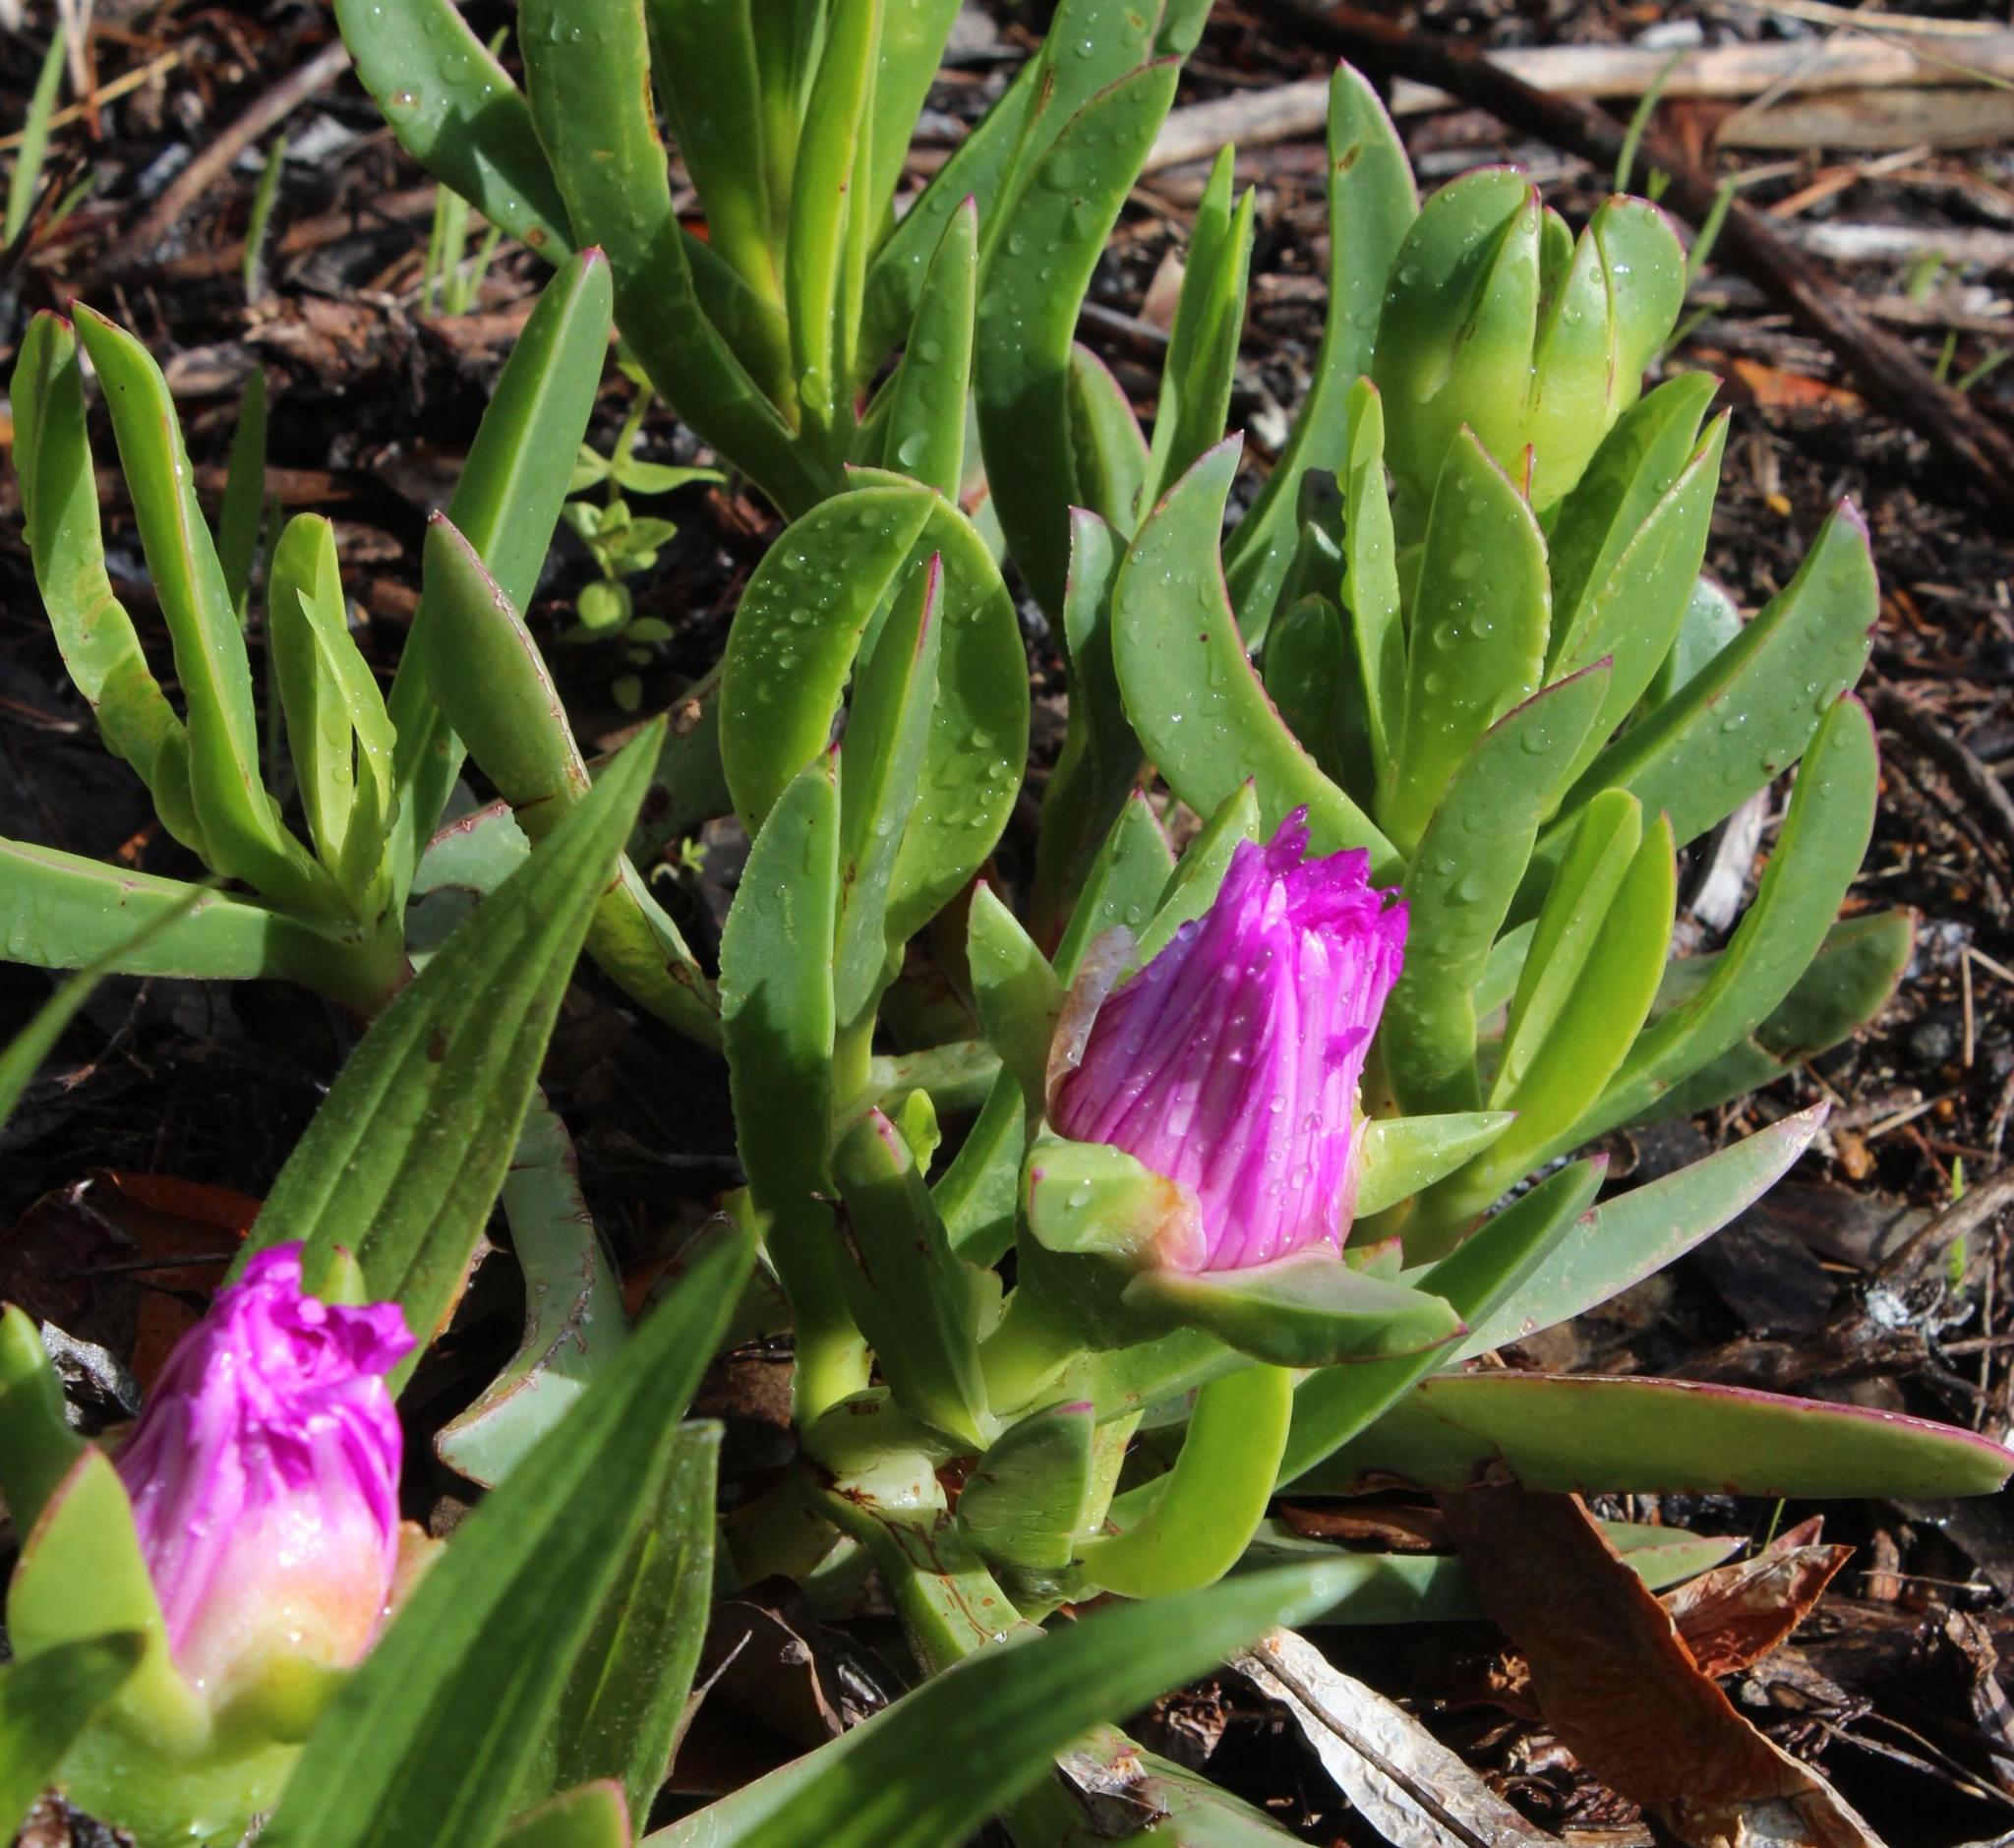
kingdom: Plantae
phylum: Tracheophyta
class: Magnoliopsida
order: Caryophyllales
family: Aizoaceae
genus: Carpobrotus
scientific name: Carpobrotus acinaciformis
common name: Sally-my-handsome
